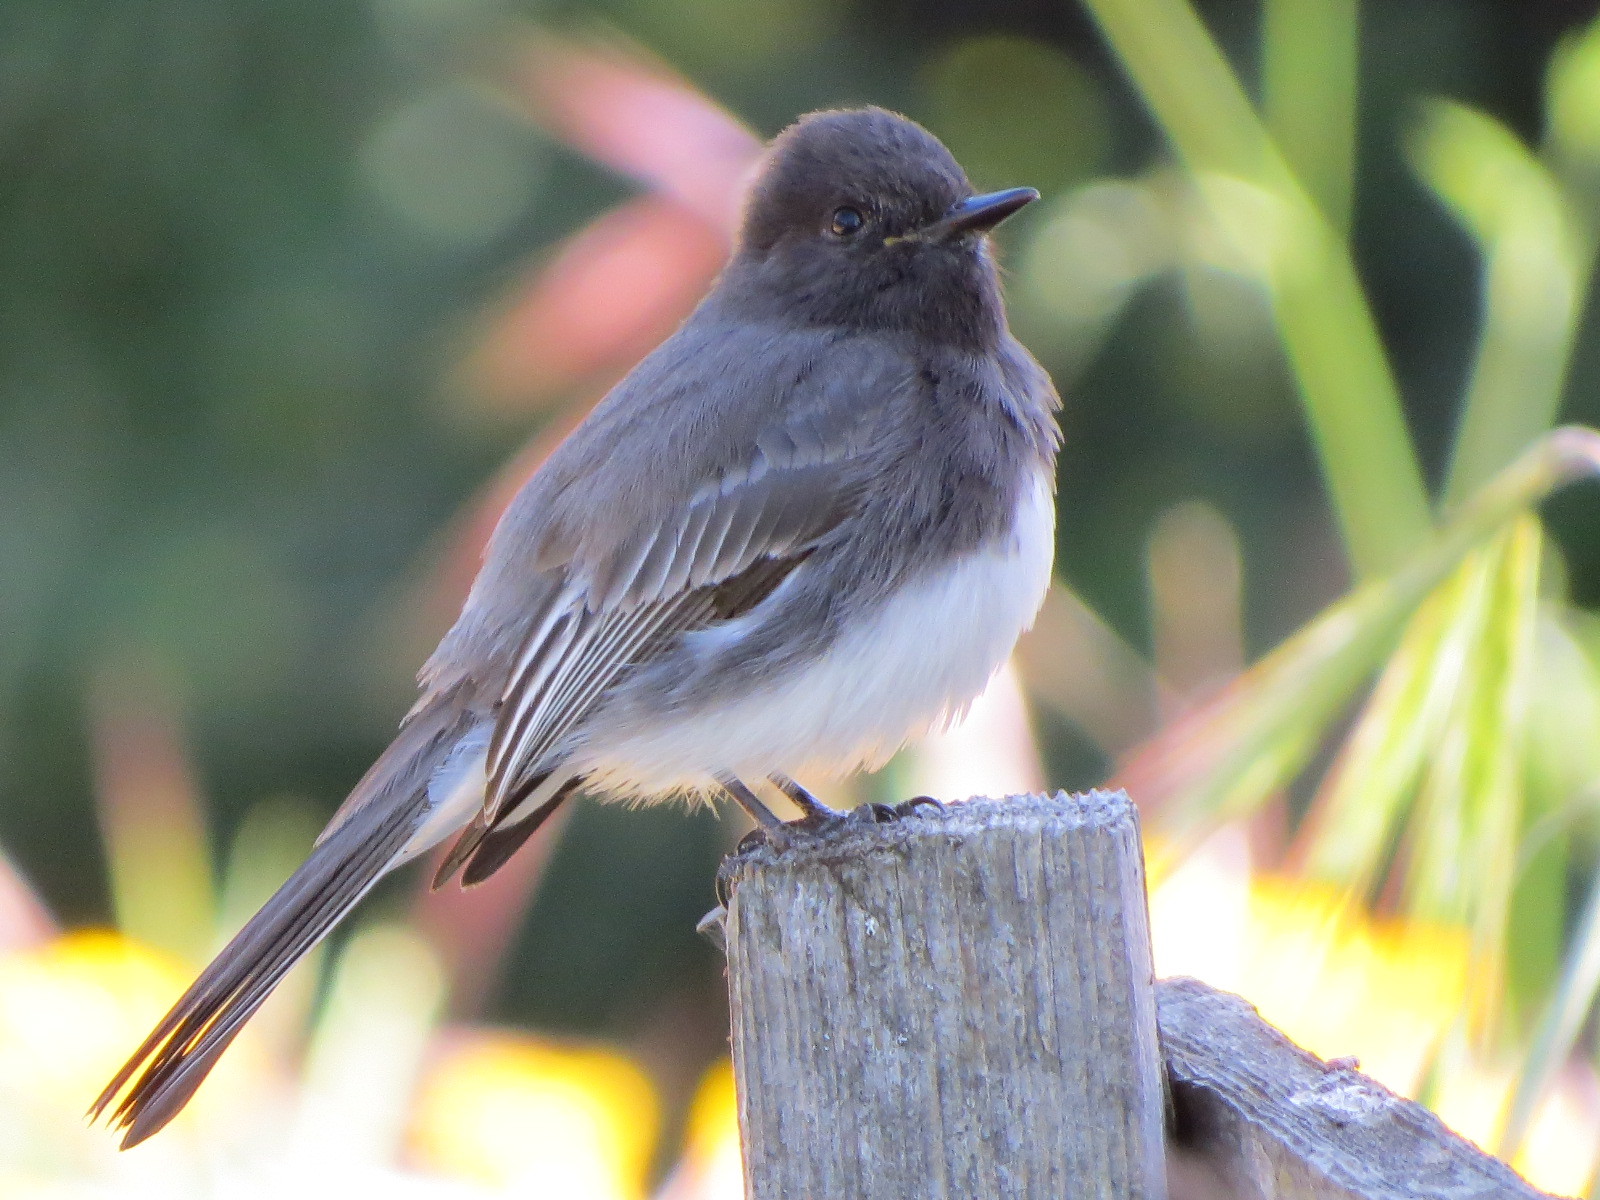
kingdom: Animalia
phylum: Chordata
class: Aves
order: Passeriformes
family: Tyrannidae
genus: Sayornis
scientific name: Sayornis nigricans
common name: Black phoebe
